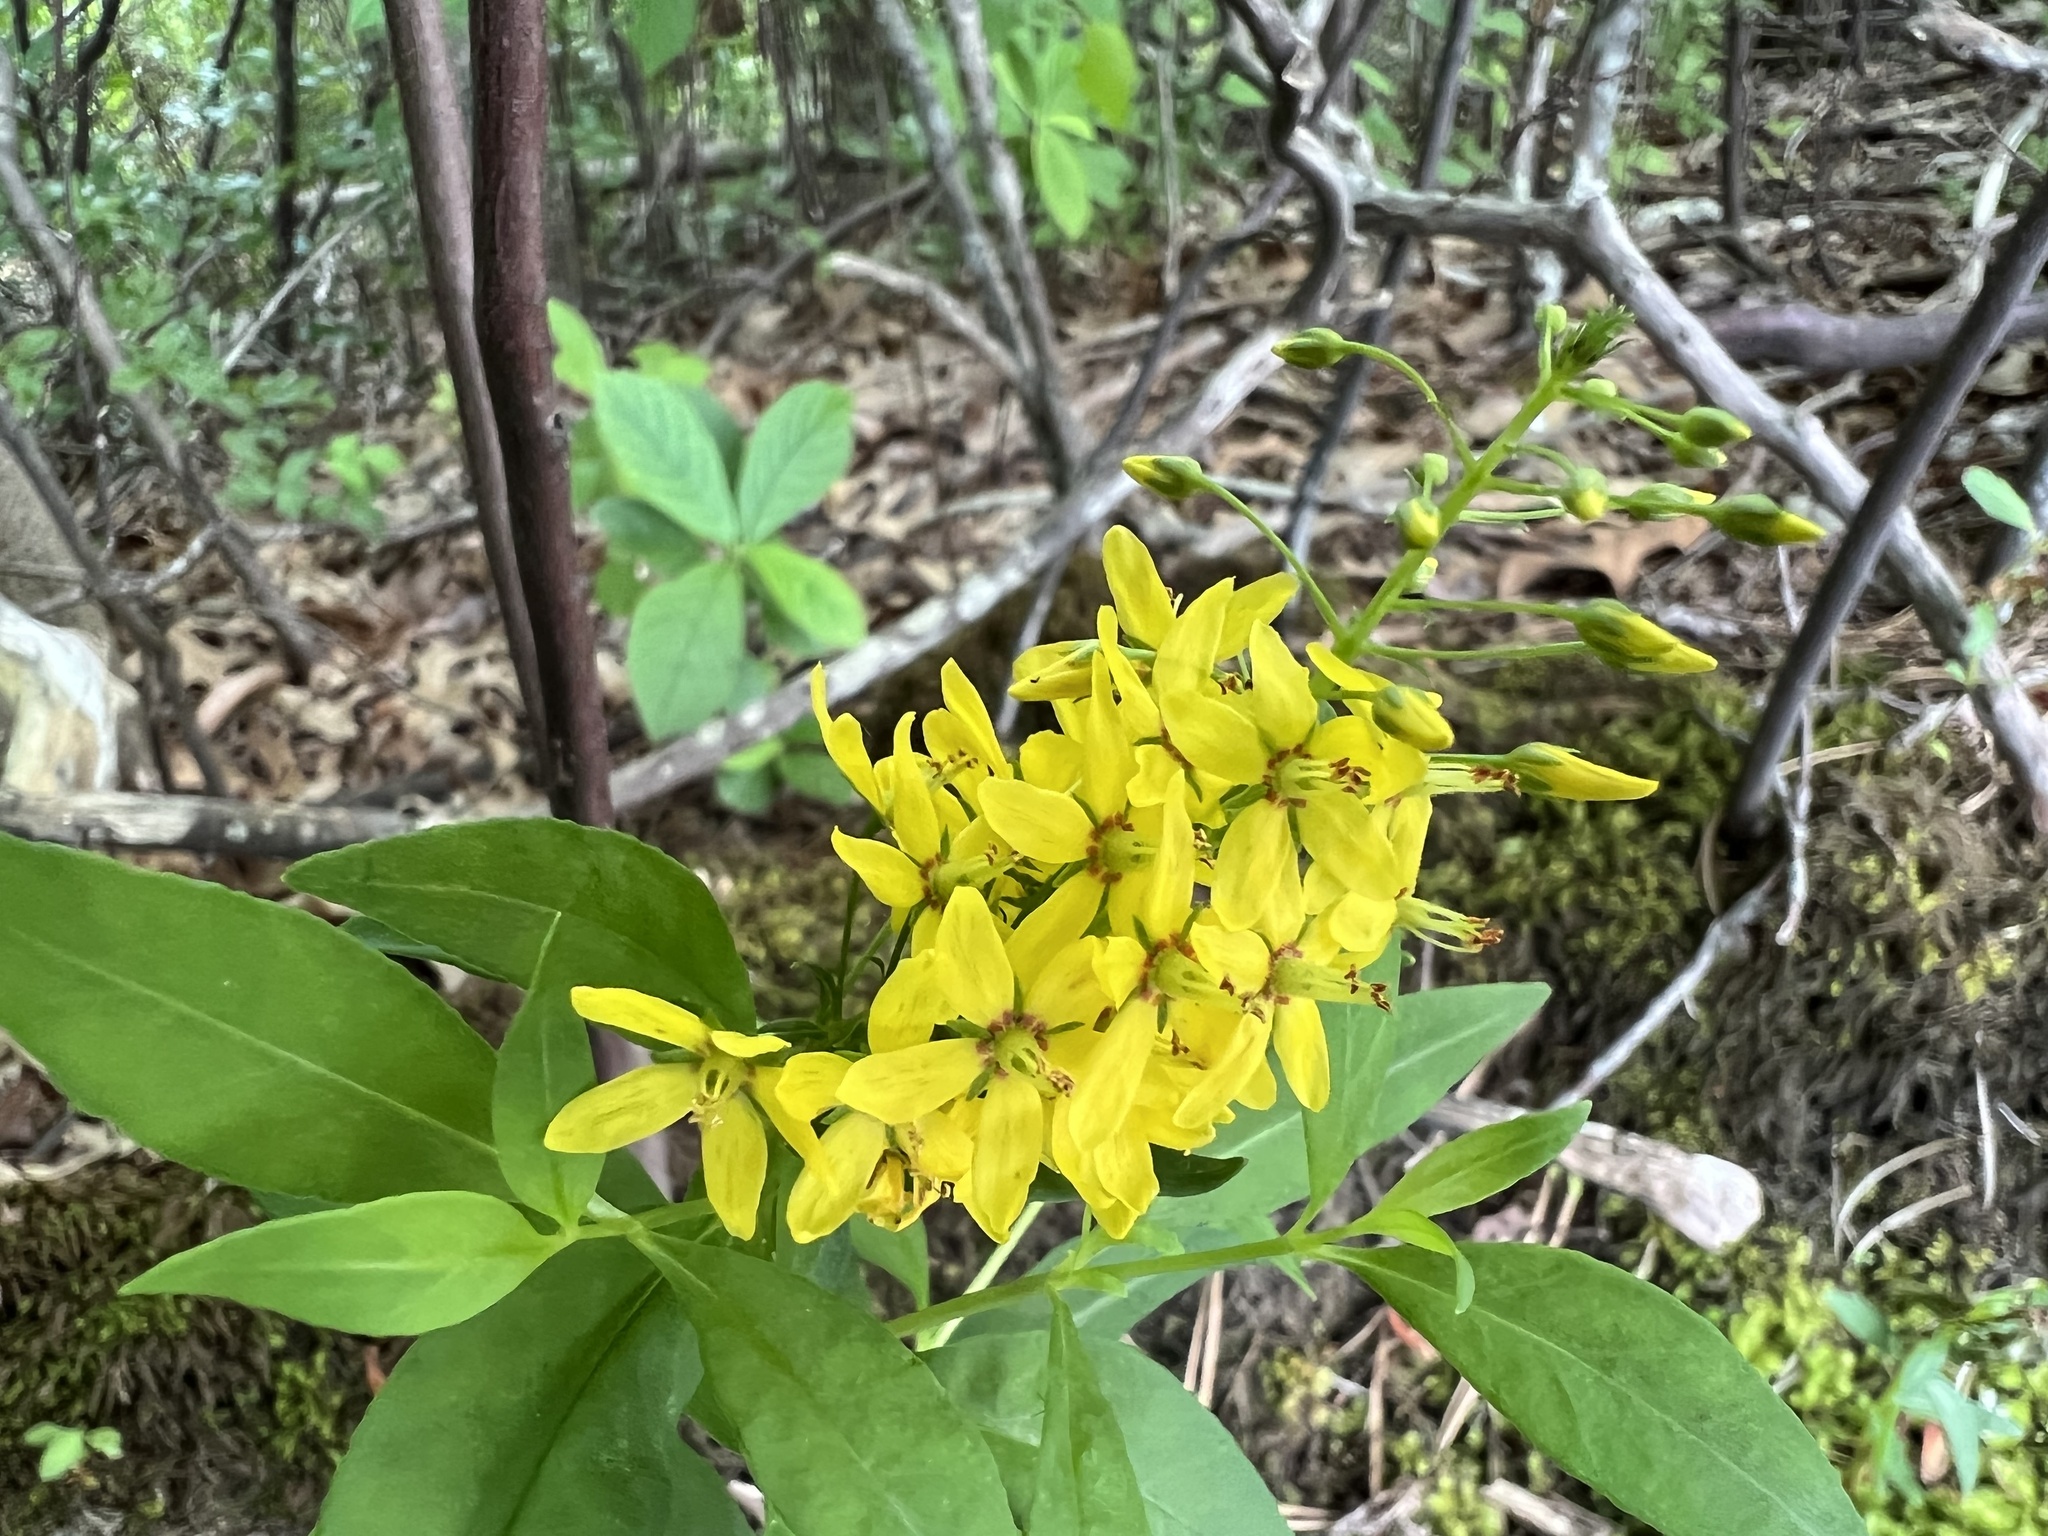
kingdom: Plantae
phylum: Tracheophyta
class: Magnoliopsida
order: Ericales
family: Primulaceae
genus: Lysimachia
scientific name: Lysimachia terrestris
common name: Lake loosestrife
